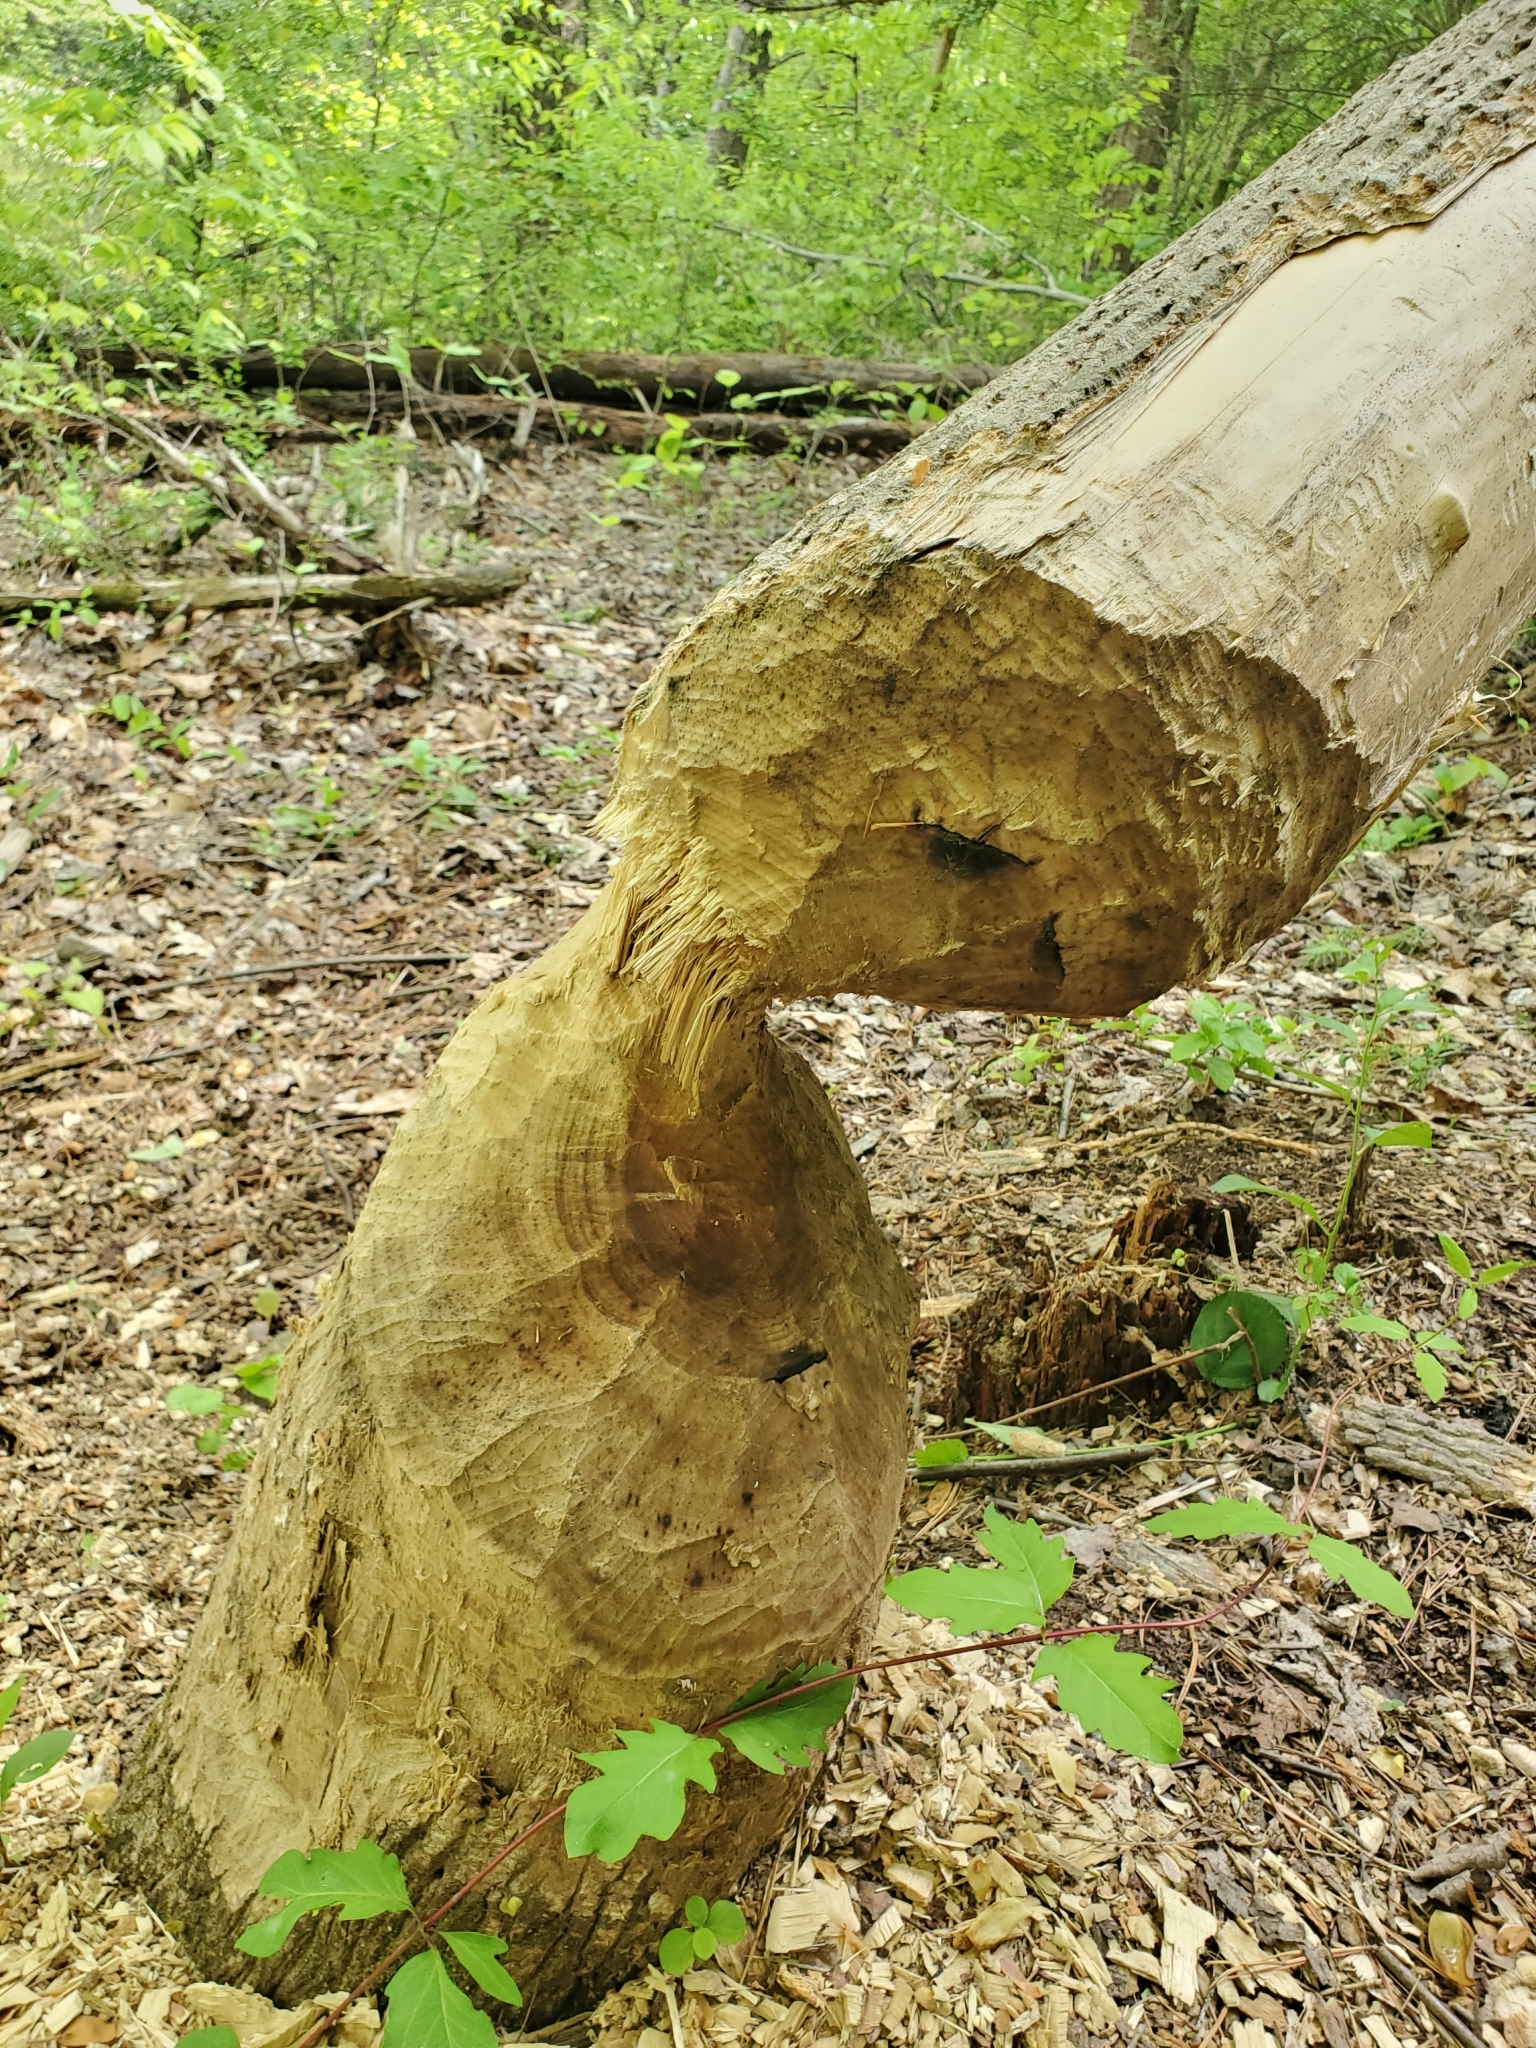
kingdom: Animalia
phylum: Chordata
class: Mammalia
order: Rodentia
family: Castoridae
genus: Castor
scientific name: Castor canadensis
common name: American beaver
